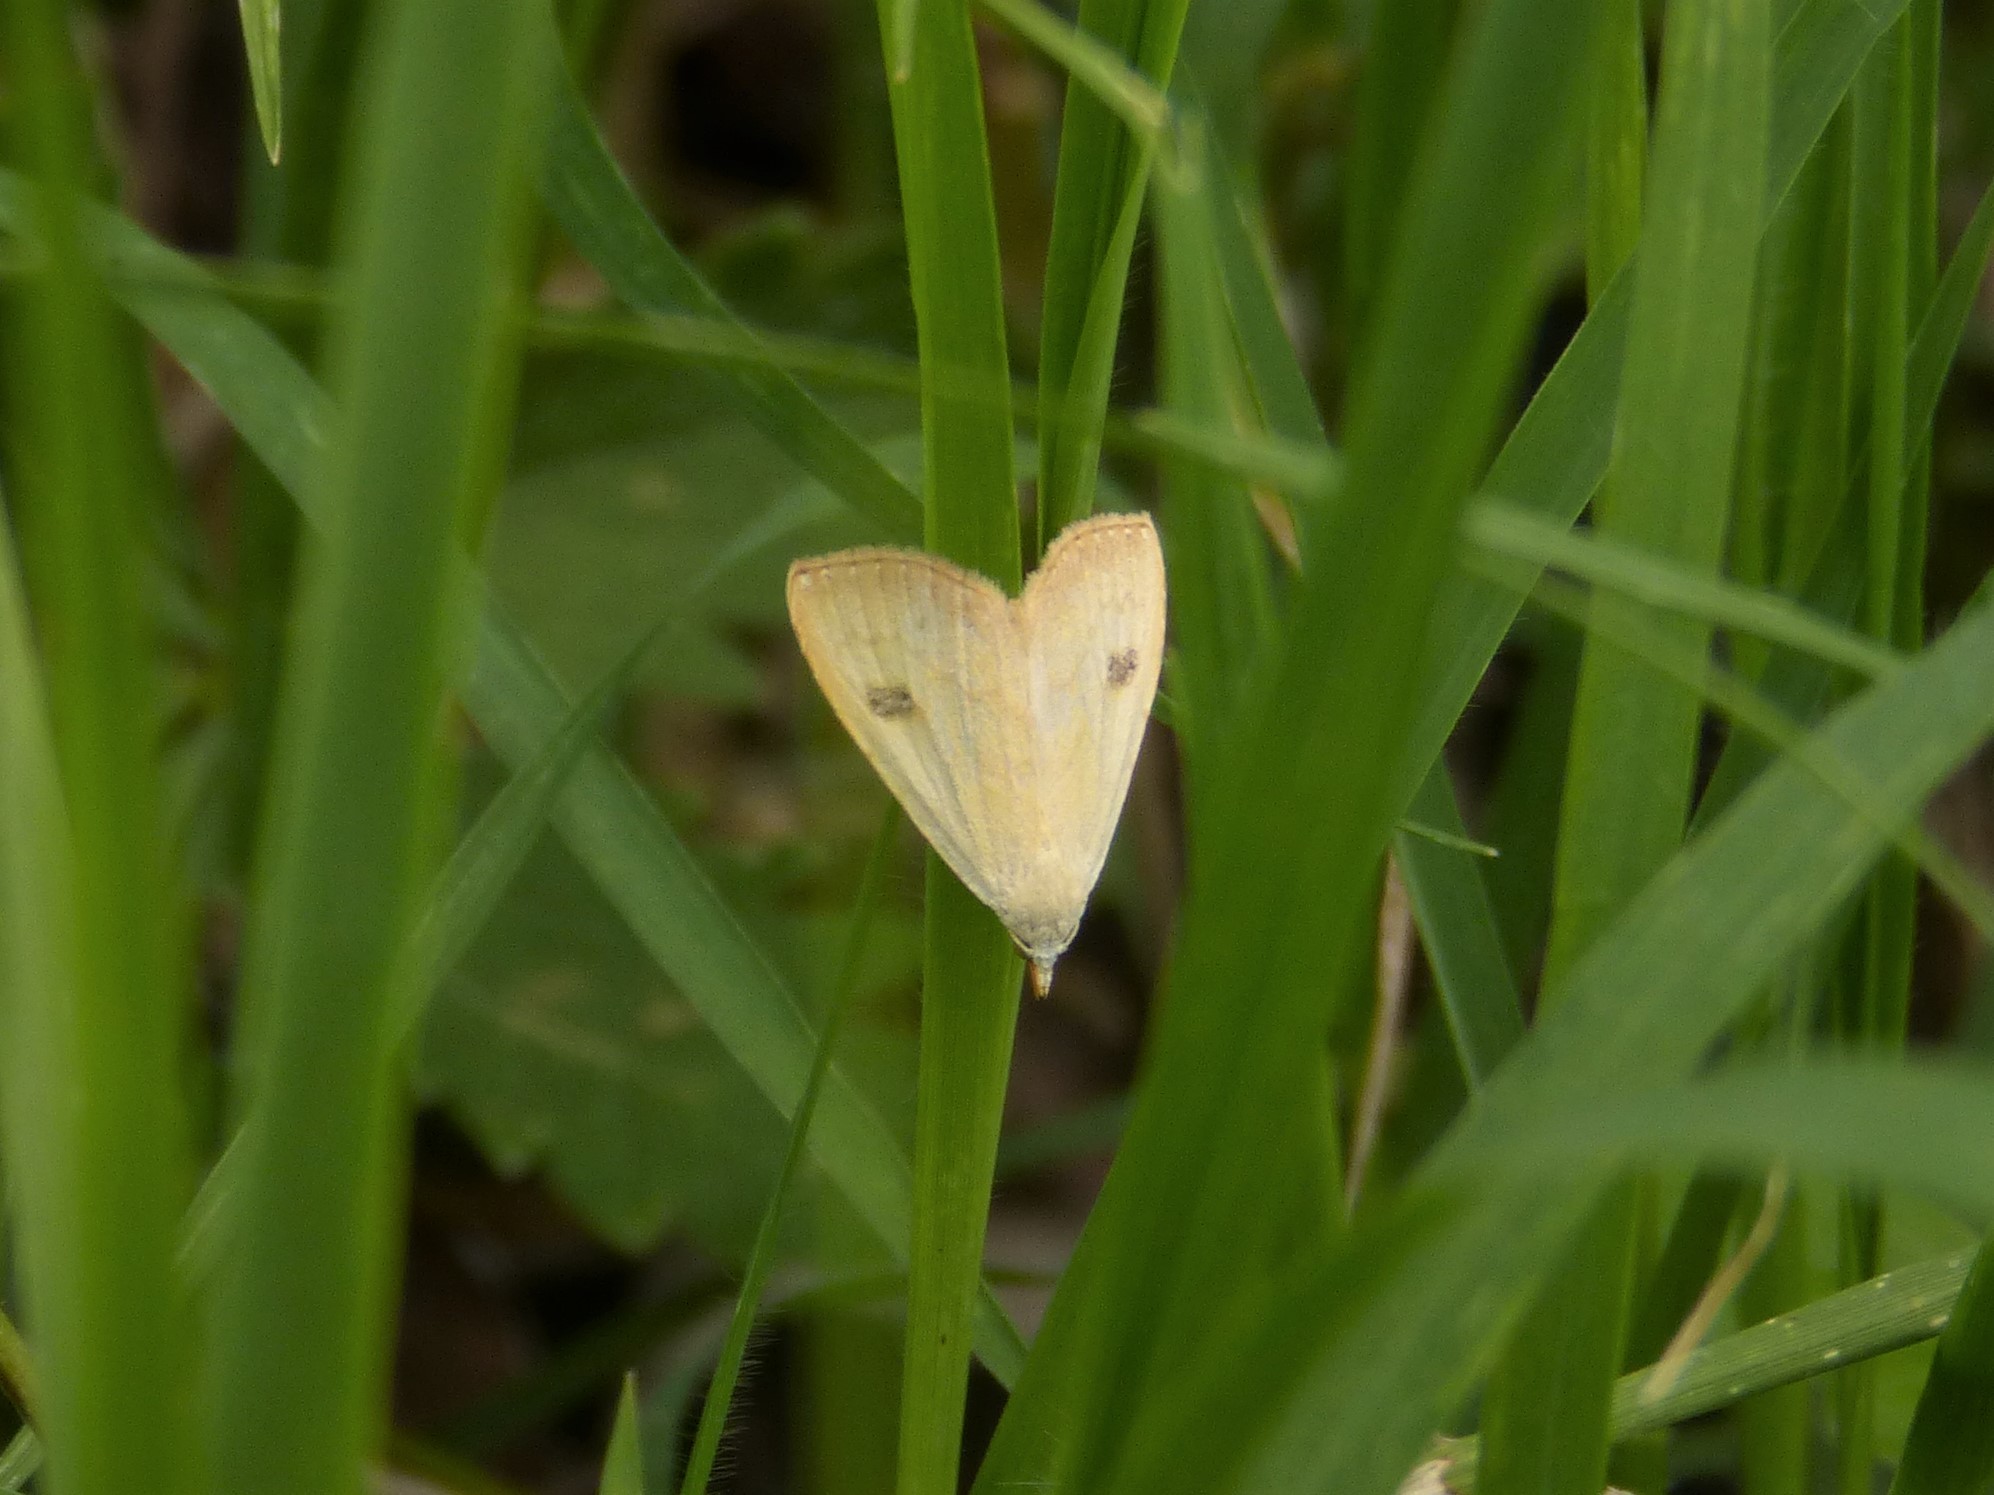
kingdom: Animalia
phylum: Arthropoda
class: Insecta
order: Lepidoptera
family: Erebidae
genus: Rivula
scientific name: Rivula sericealis
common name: Straw dot
